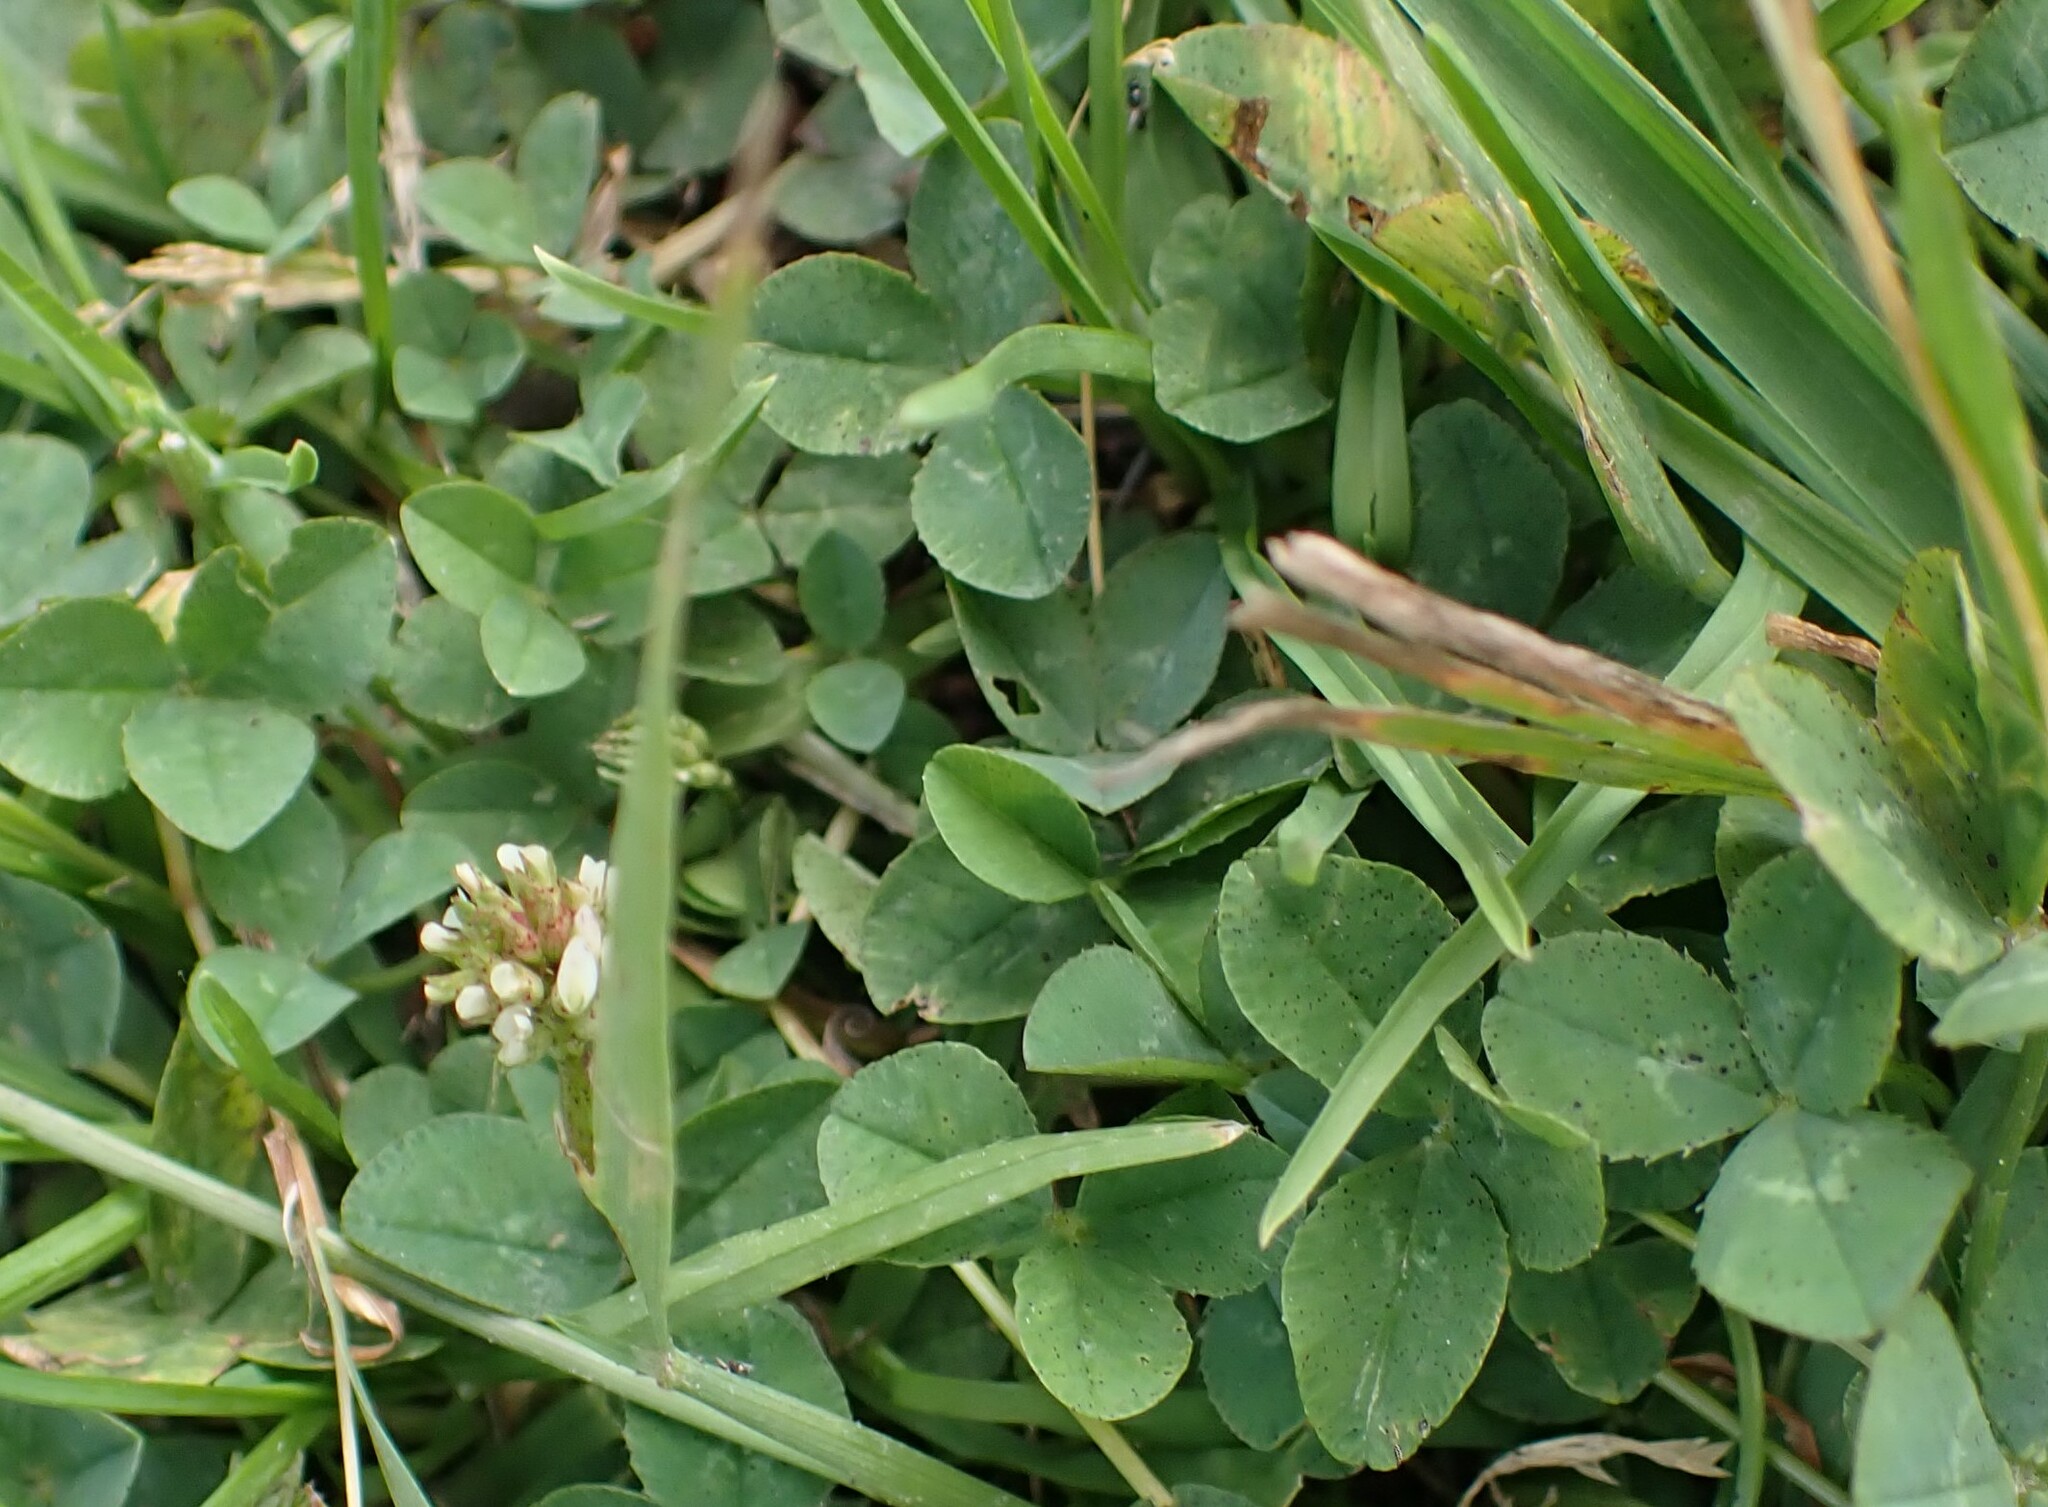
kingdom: Plantae
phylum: Tracheophyta
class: Magnoliopsida
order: Fabales
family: Fabaceae
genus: Trifolium
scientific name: Trifolium repens
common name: White clover
